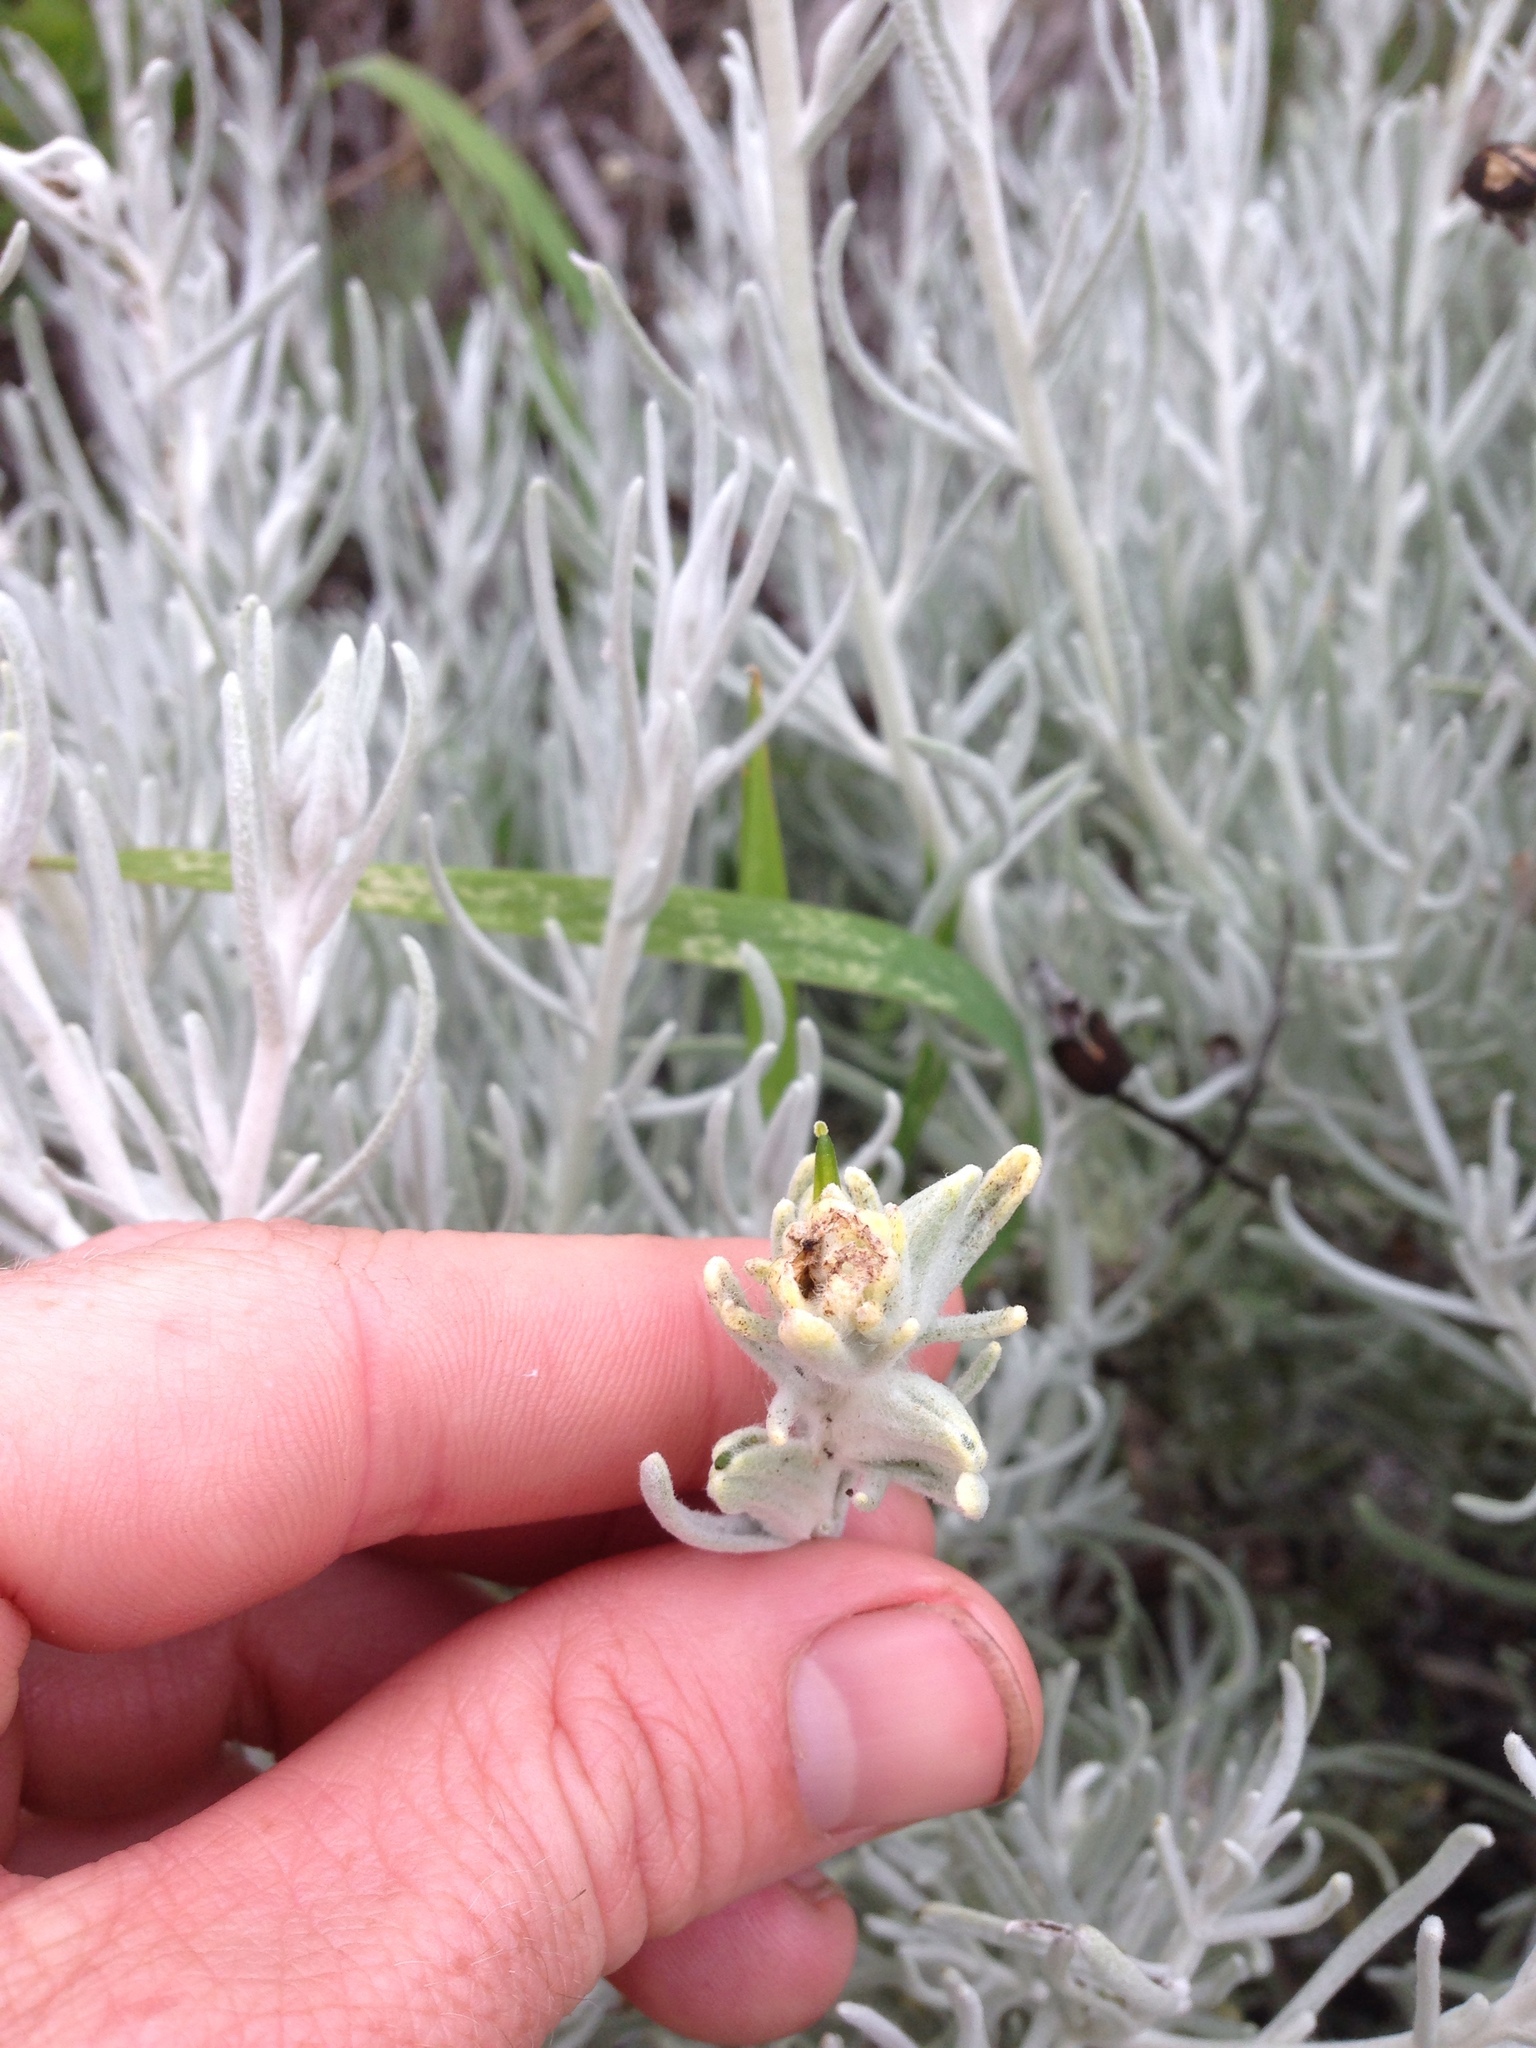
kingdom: Plantae
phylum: Tracheophyta
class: Magnoliopsida
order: Lamiales
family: Orobanchaceae
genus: Castilleja
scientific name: Castilleja hololeuca
